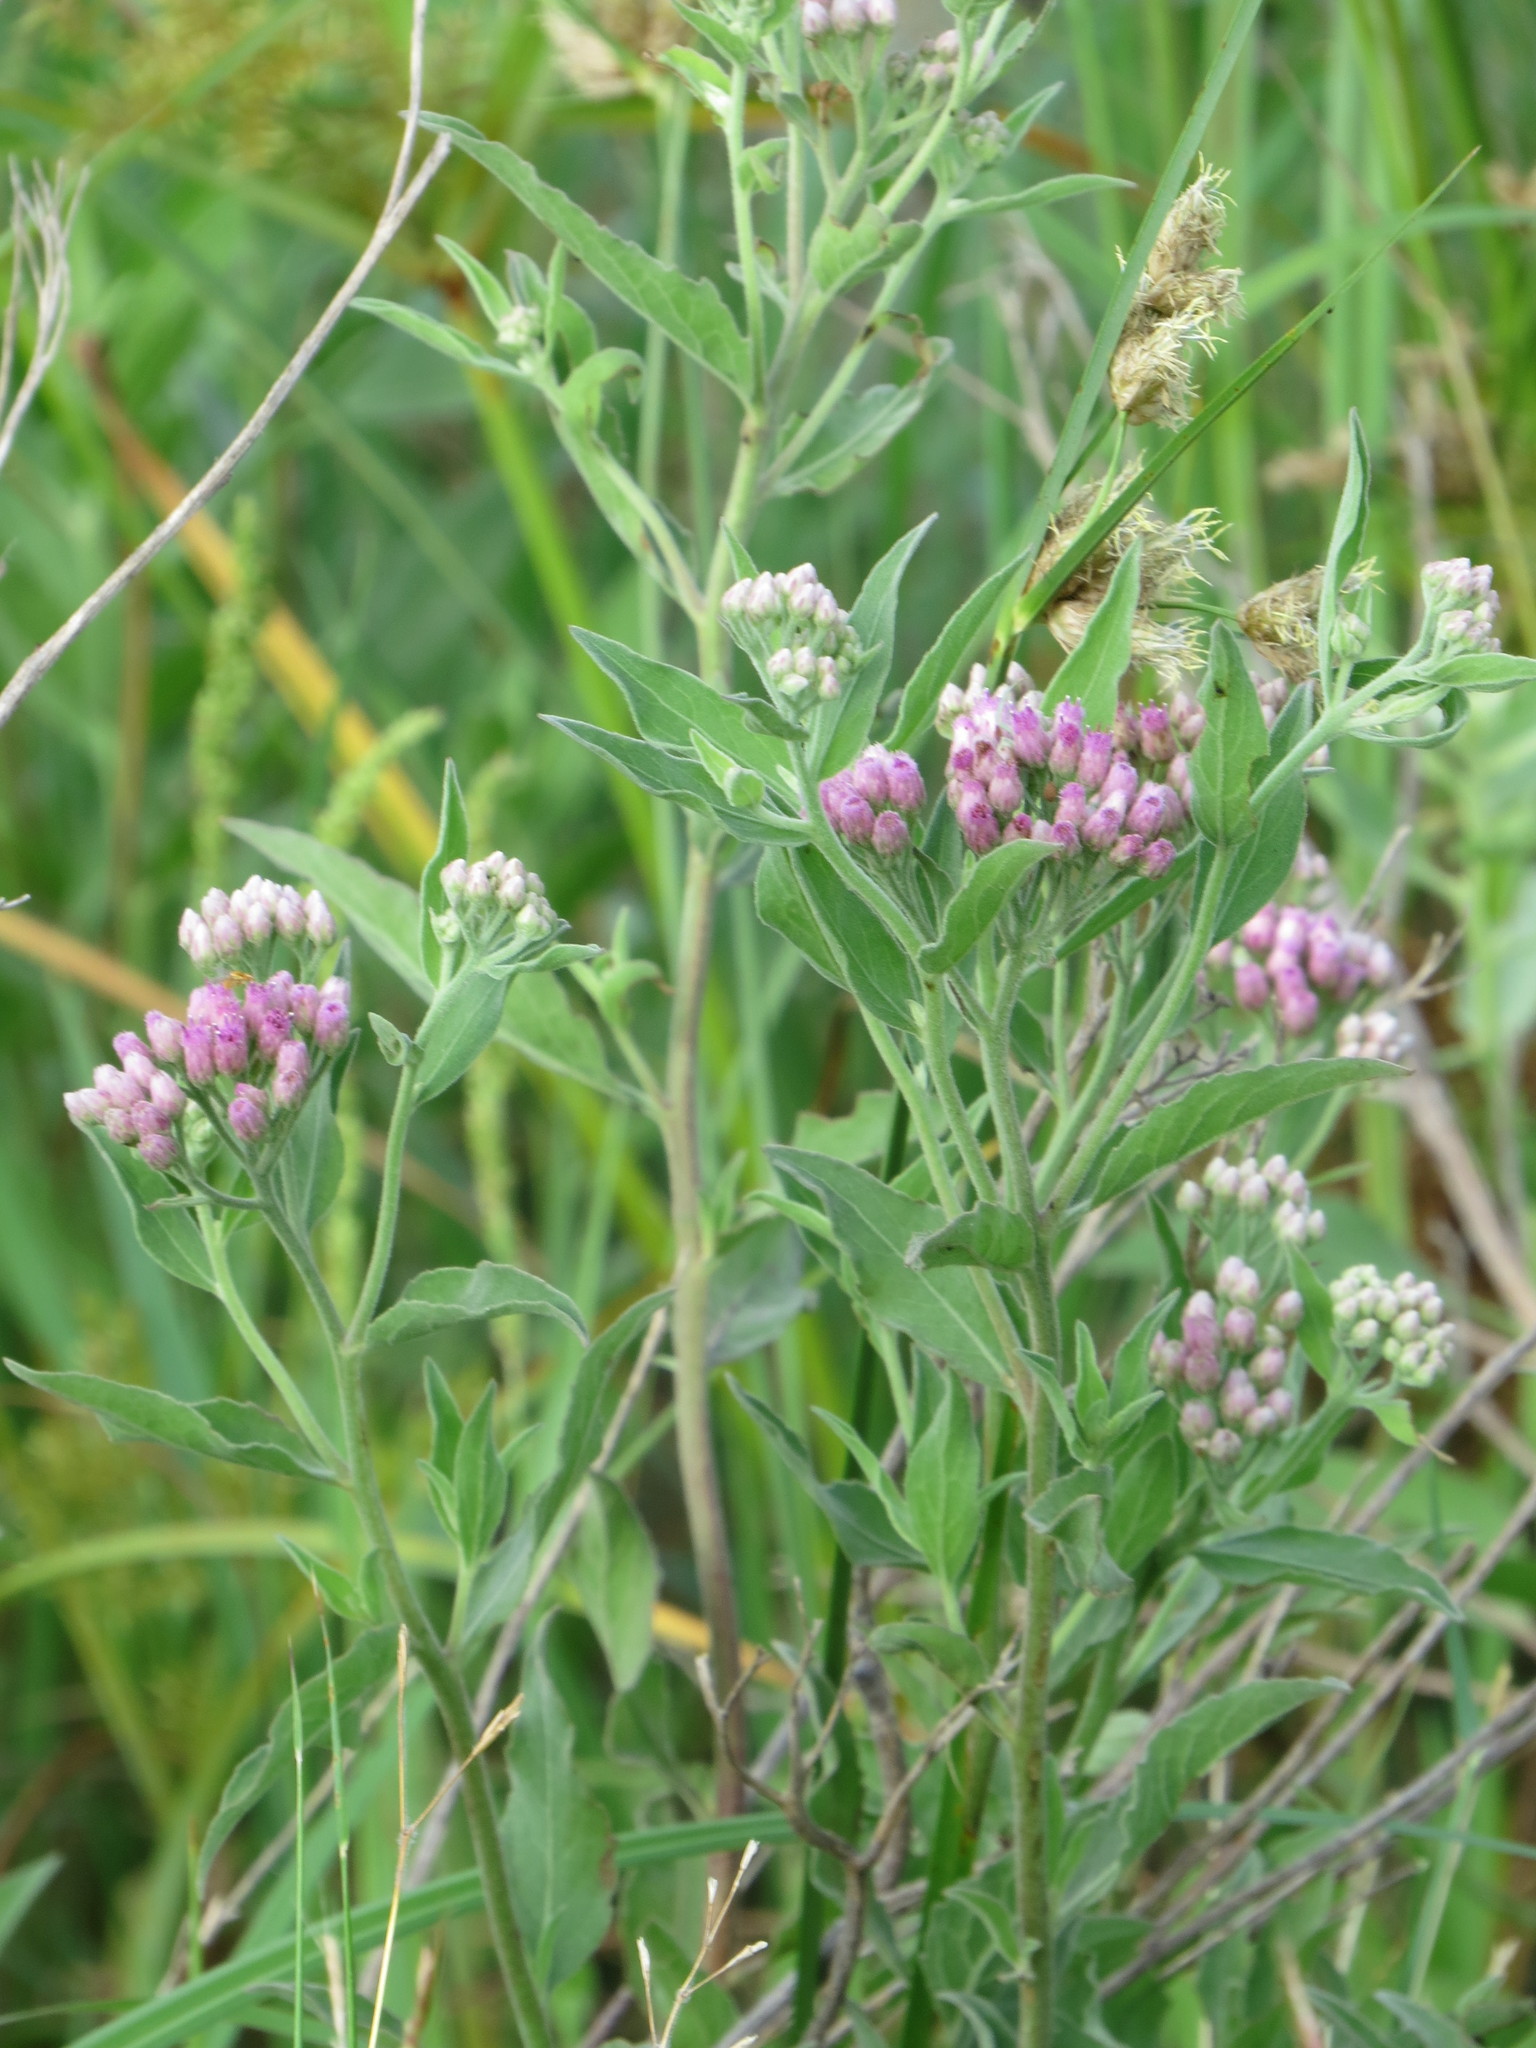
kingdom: Plantae
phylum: Tracheophyta
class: Magnoliopsida
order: Asterales
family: Asteraceae
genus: Pluchea
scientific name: Pluchea odorata
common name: Saltmarsh fleabane
